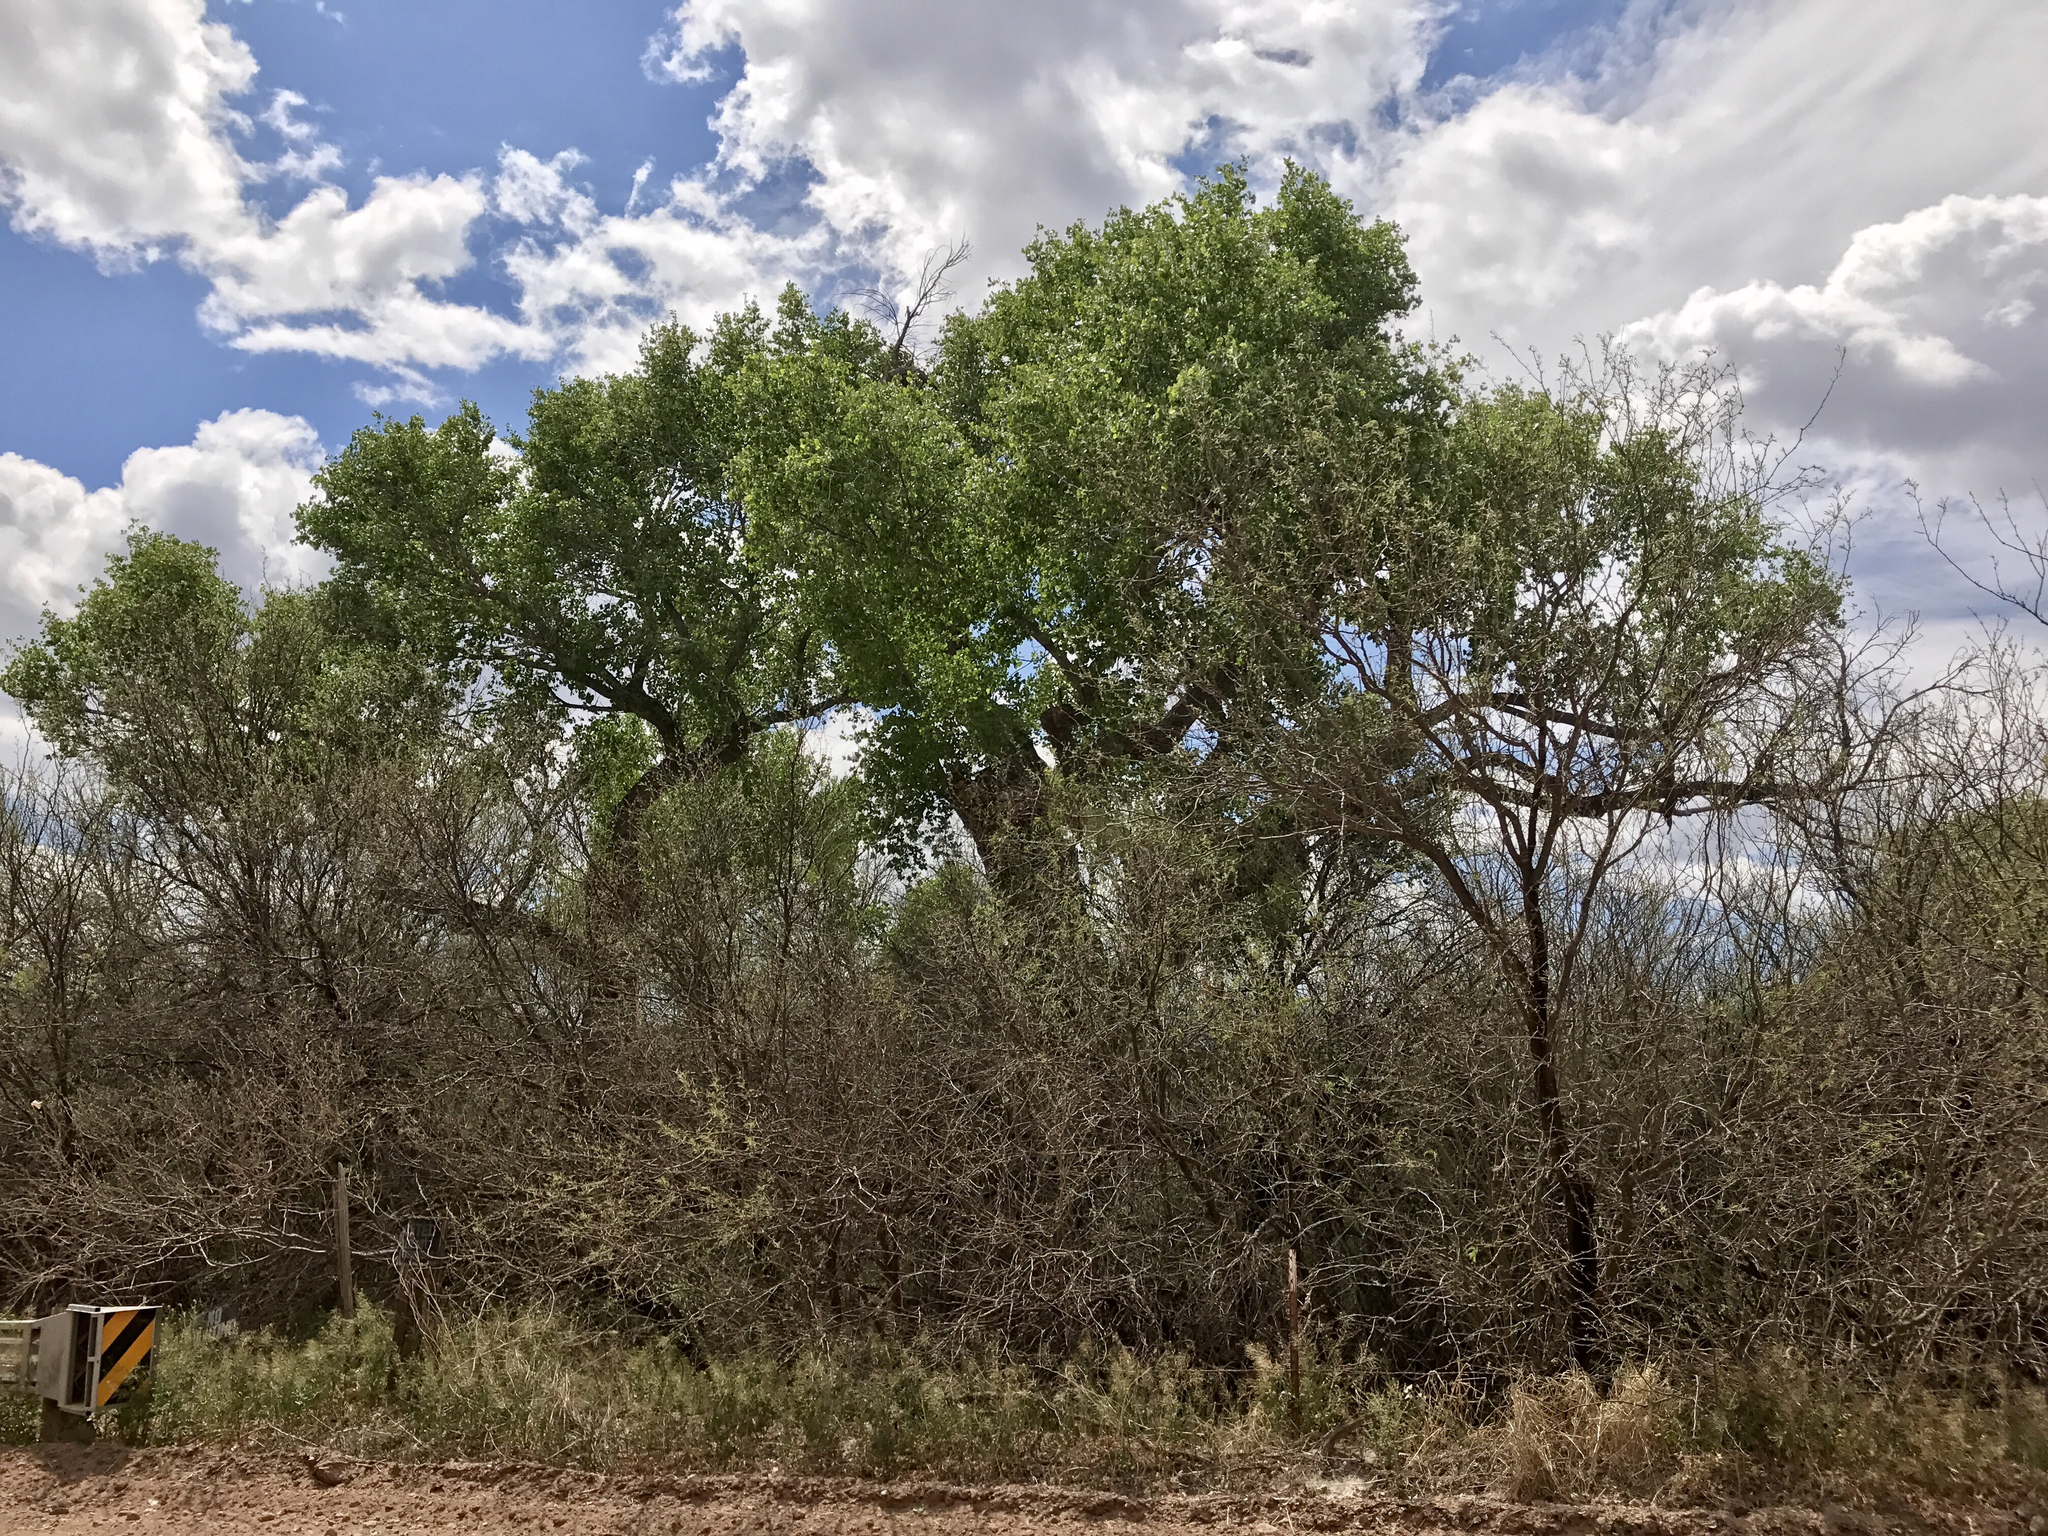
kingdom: Plantae
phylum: Tracheophyta
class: Magnoliopsida
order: Malpighiales
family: Salicaceae
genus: Populus
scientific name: Populus fremontii
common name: Fremont's cottonwood
